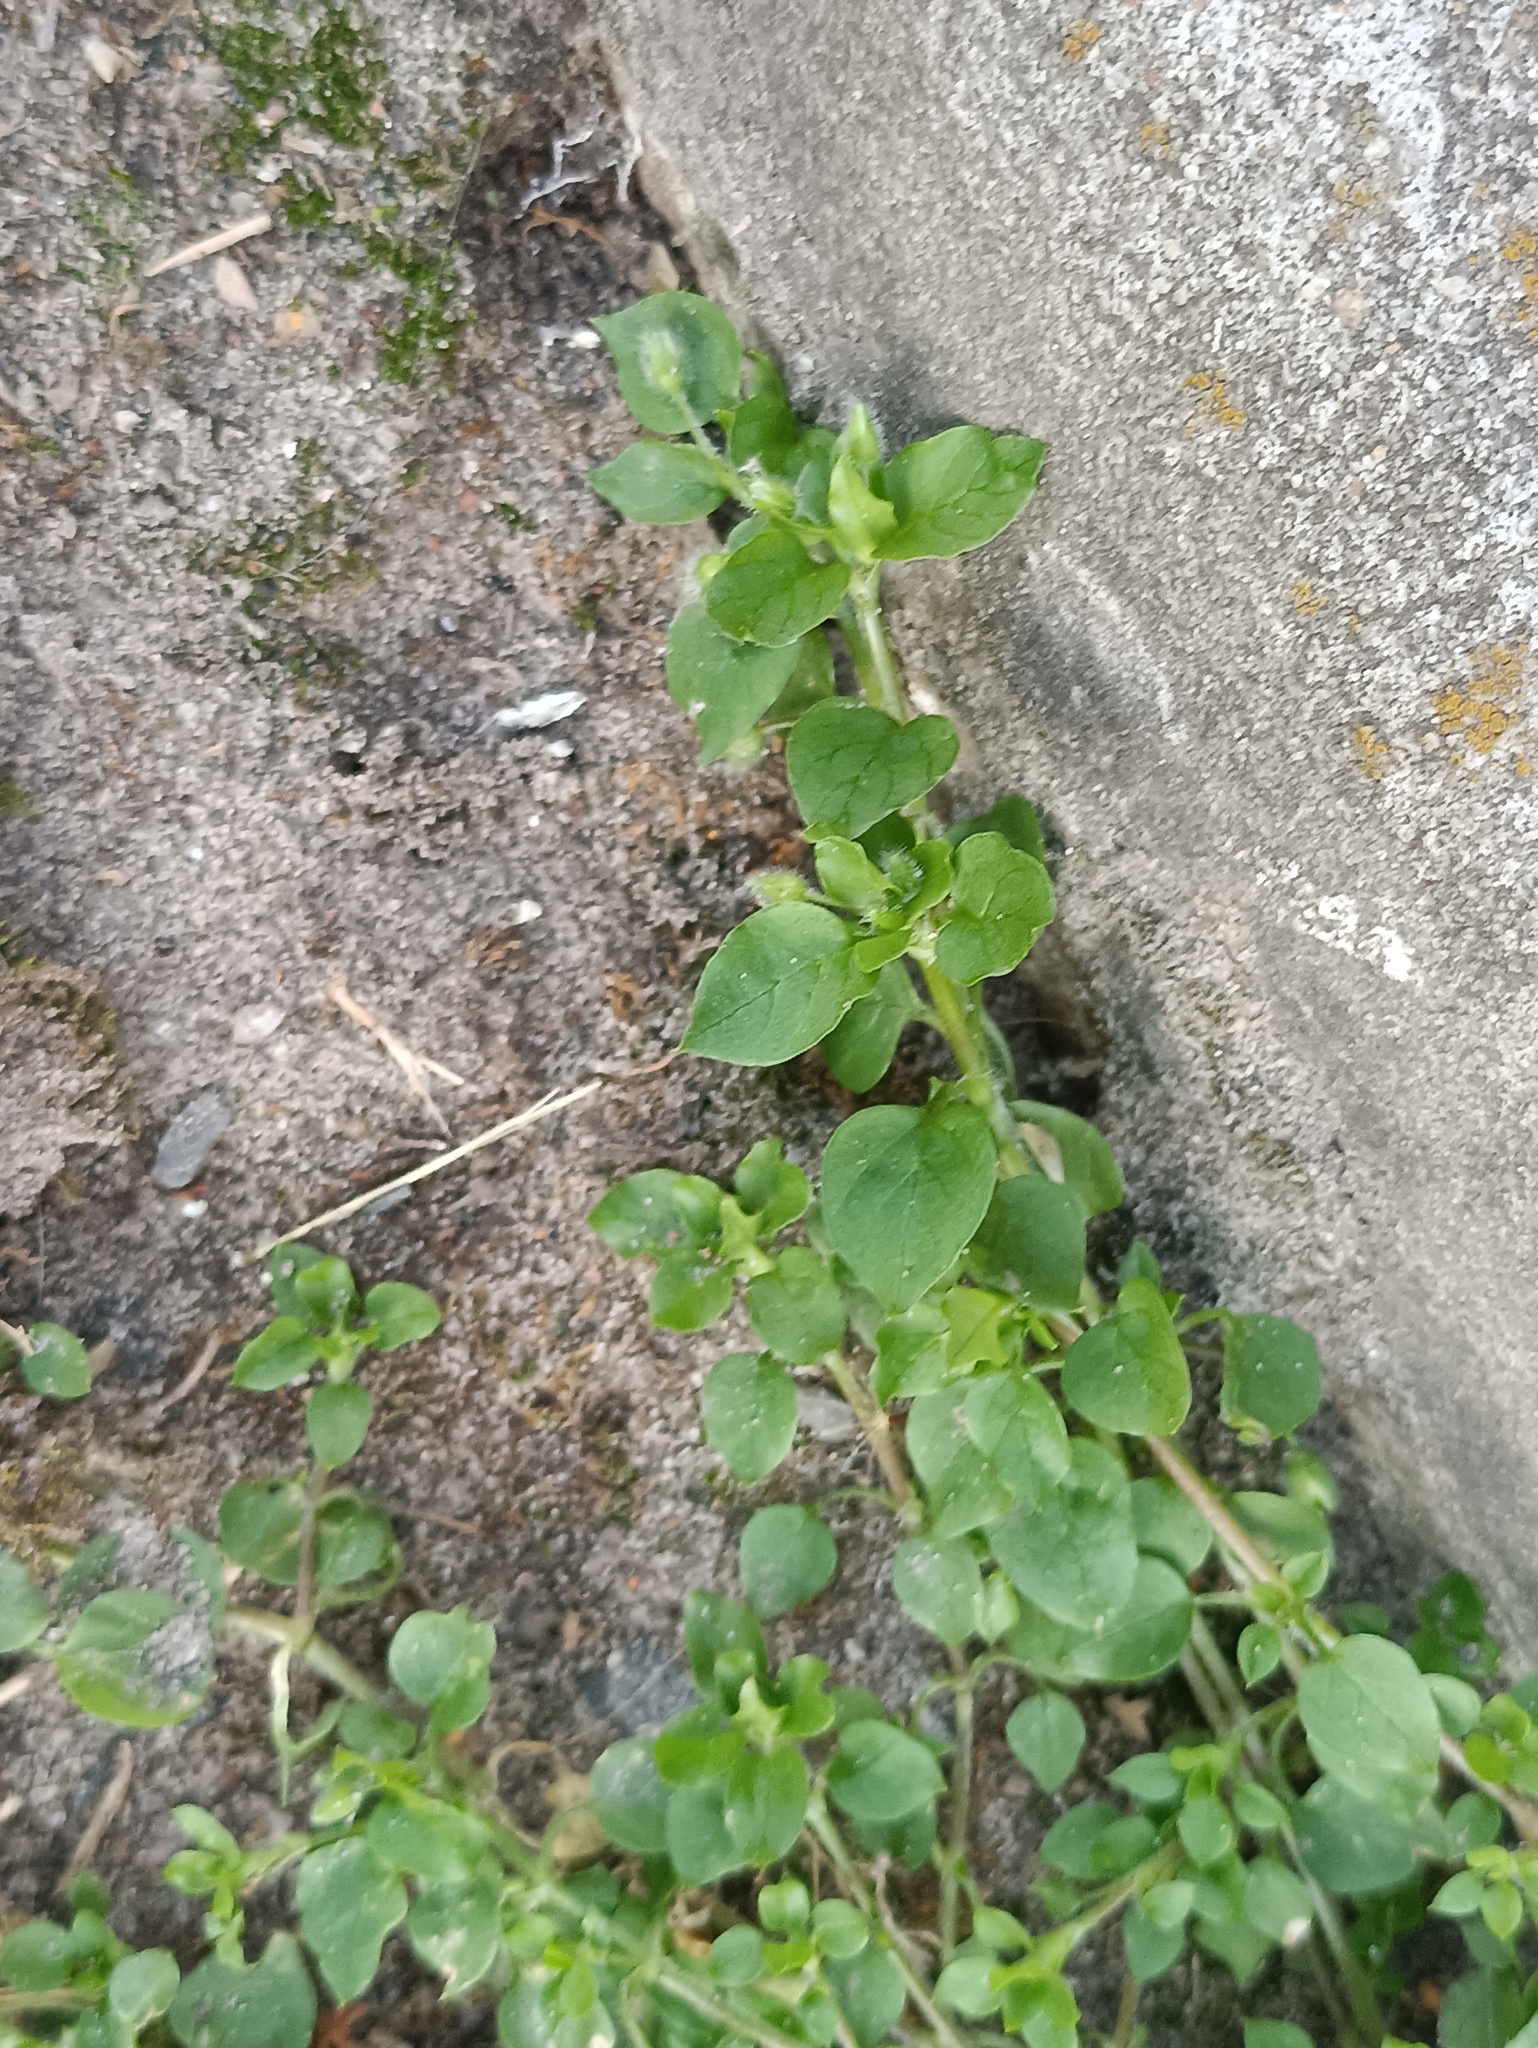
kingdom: Plantae
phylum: Tracheophyta
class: Magnoliopsida
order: Caryophyllales
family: Caryophyllaceae
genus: Stellaria
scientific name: Stellaria media
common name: Common chickweed
